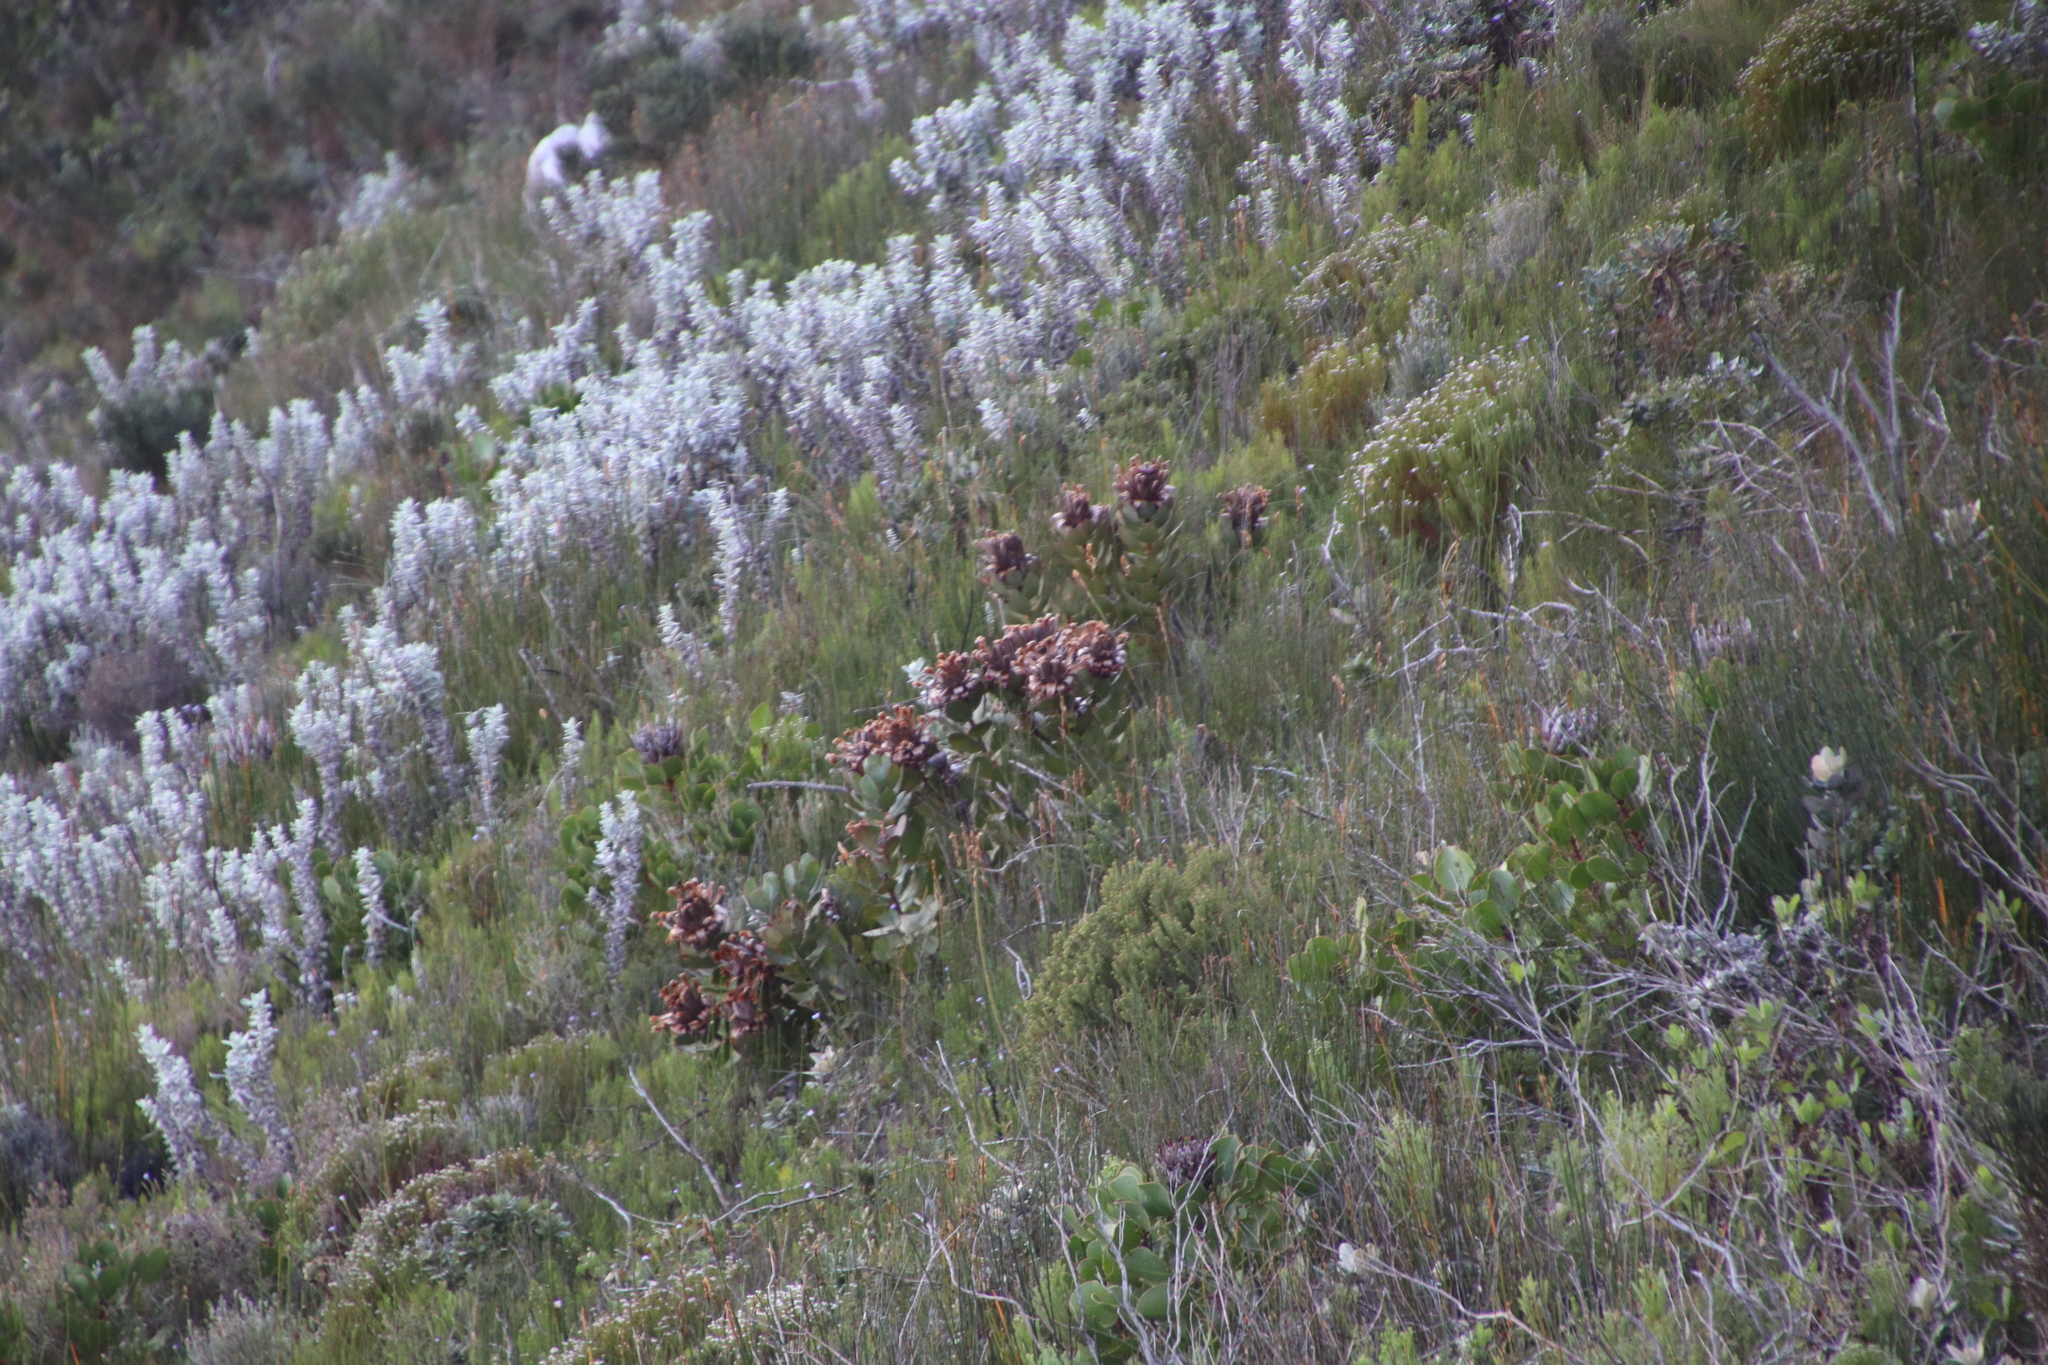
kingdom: Plantae
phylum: Tracheophyta
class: Magnoliopsida
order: Proteales
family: Proteaceae
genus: Protea
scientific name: Protea speciosa
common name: Brown-beard sugarbush
